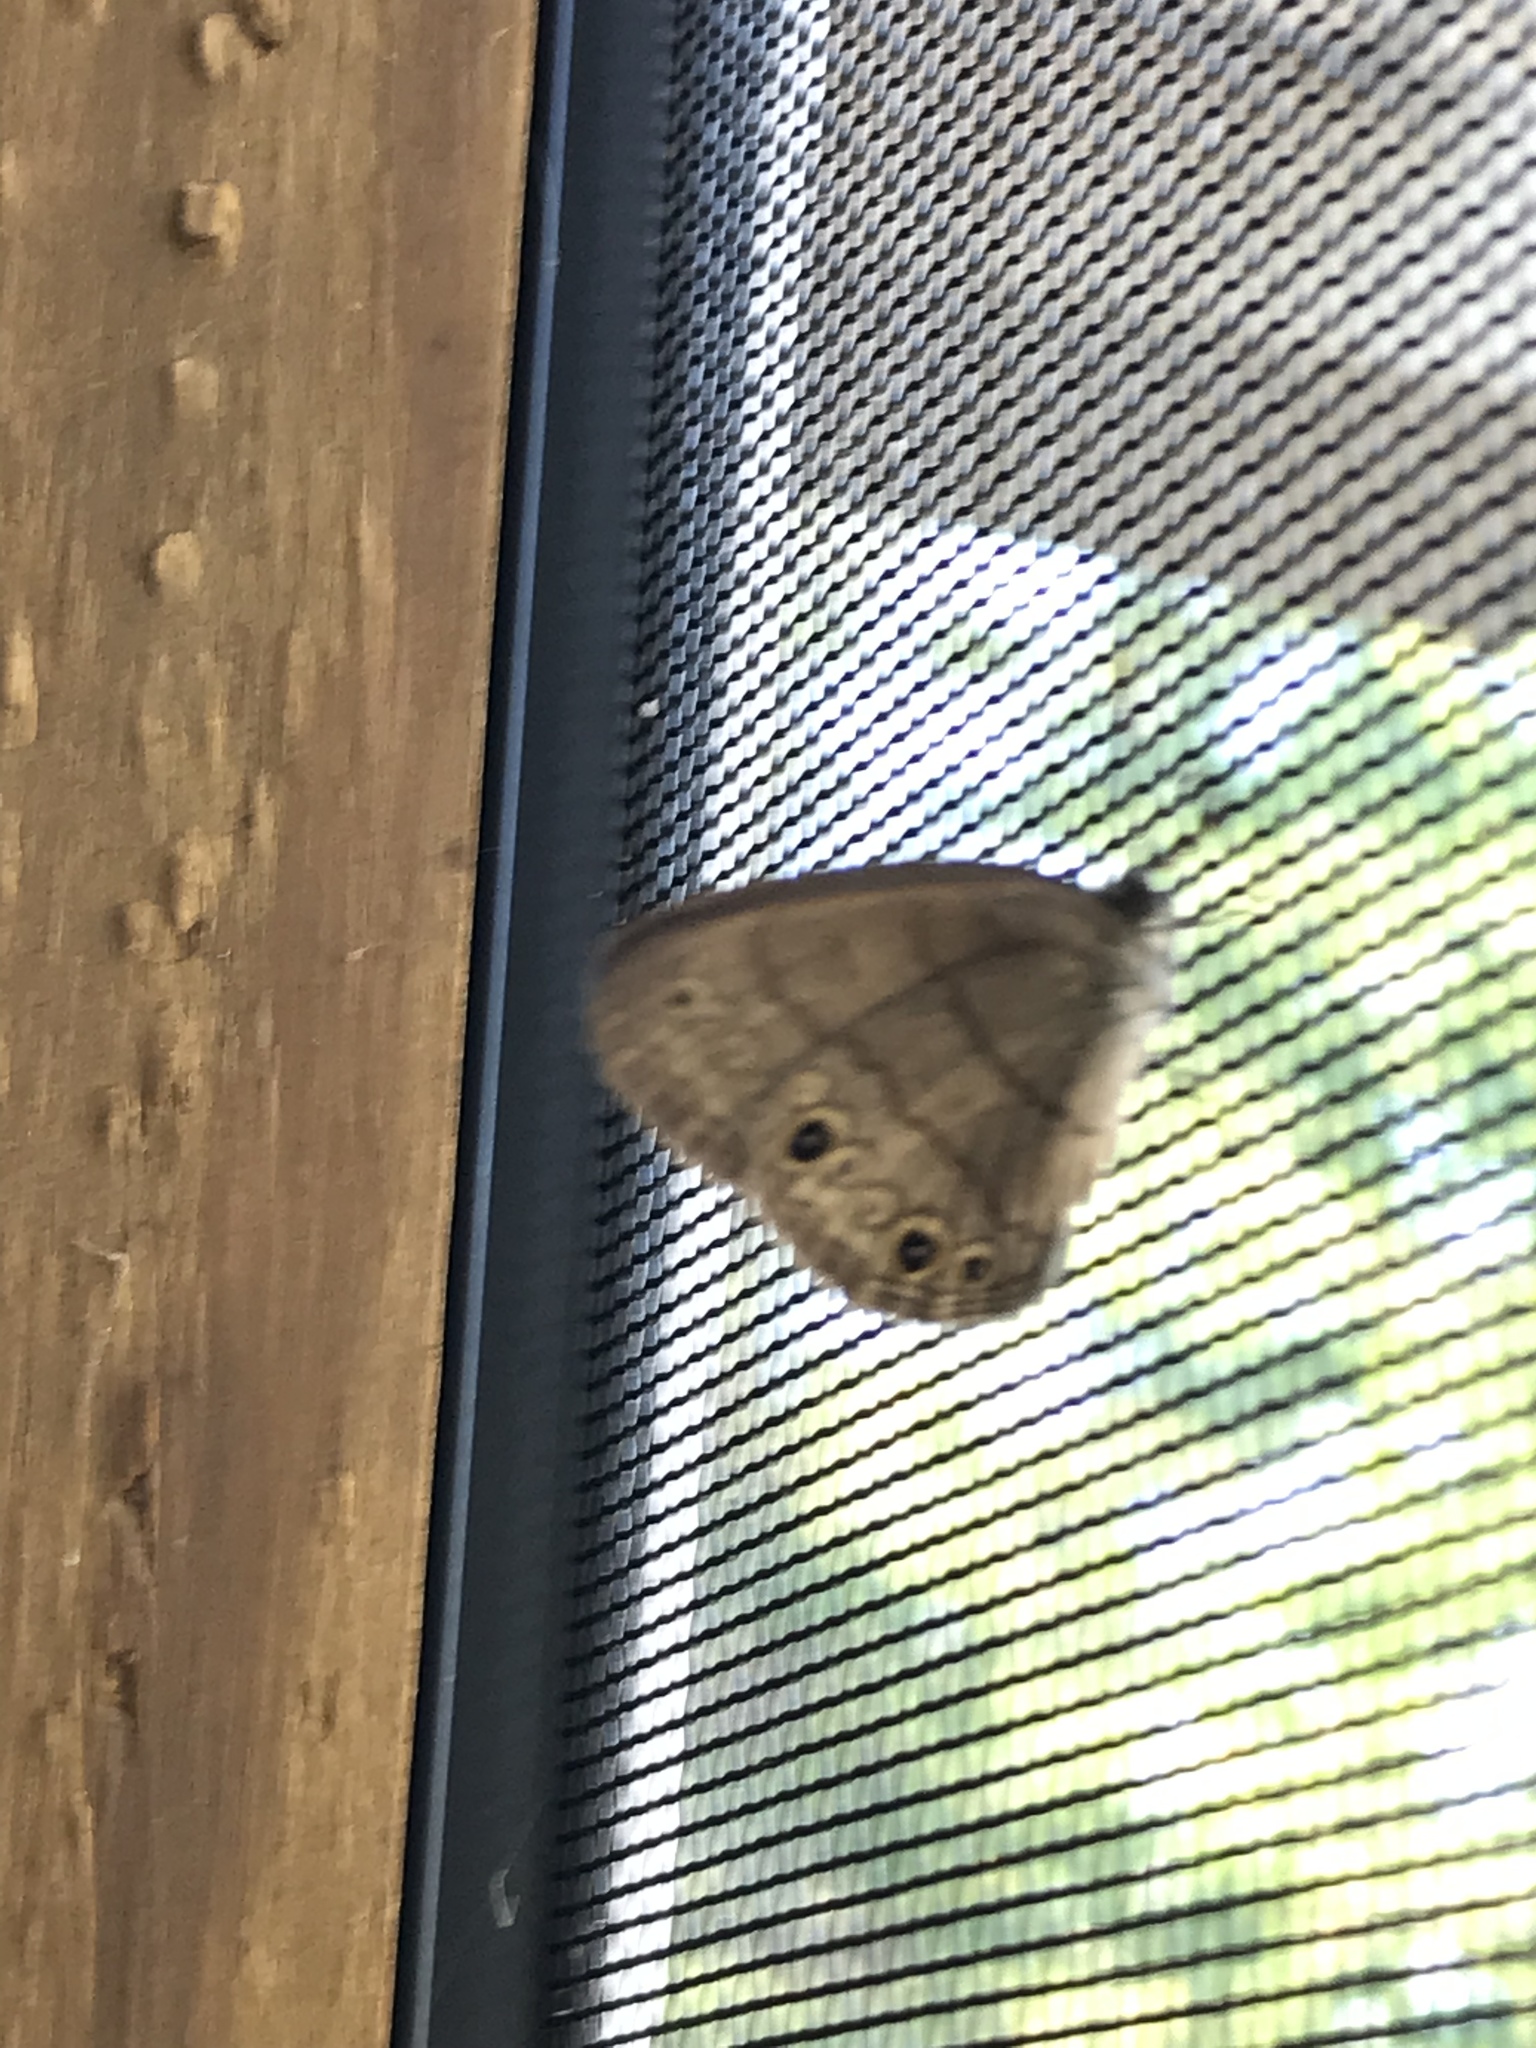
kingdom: Animalia
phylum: Arthropoda
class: Insecta
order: Lepidoptera
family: Nymphalidae
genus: Hermeuptychia
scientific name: Hermeuptychia hermes
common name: Hermes satyr
